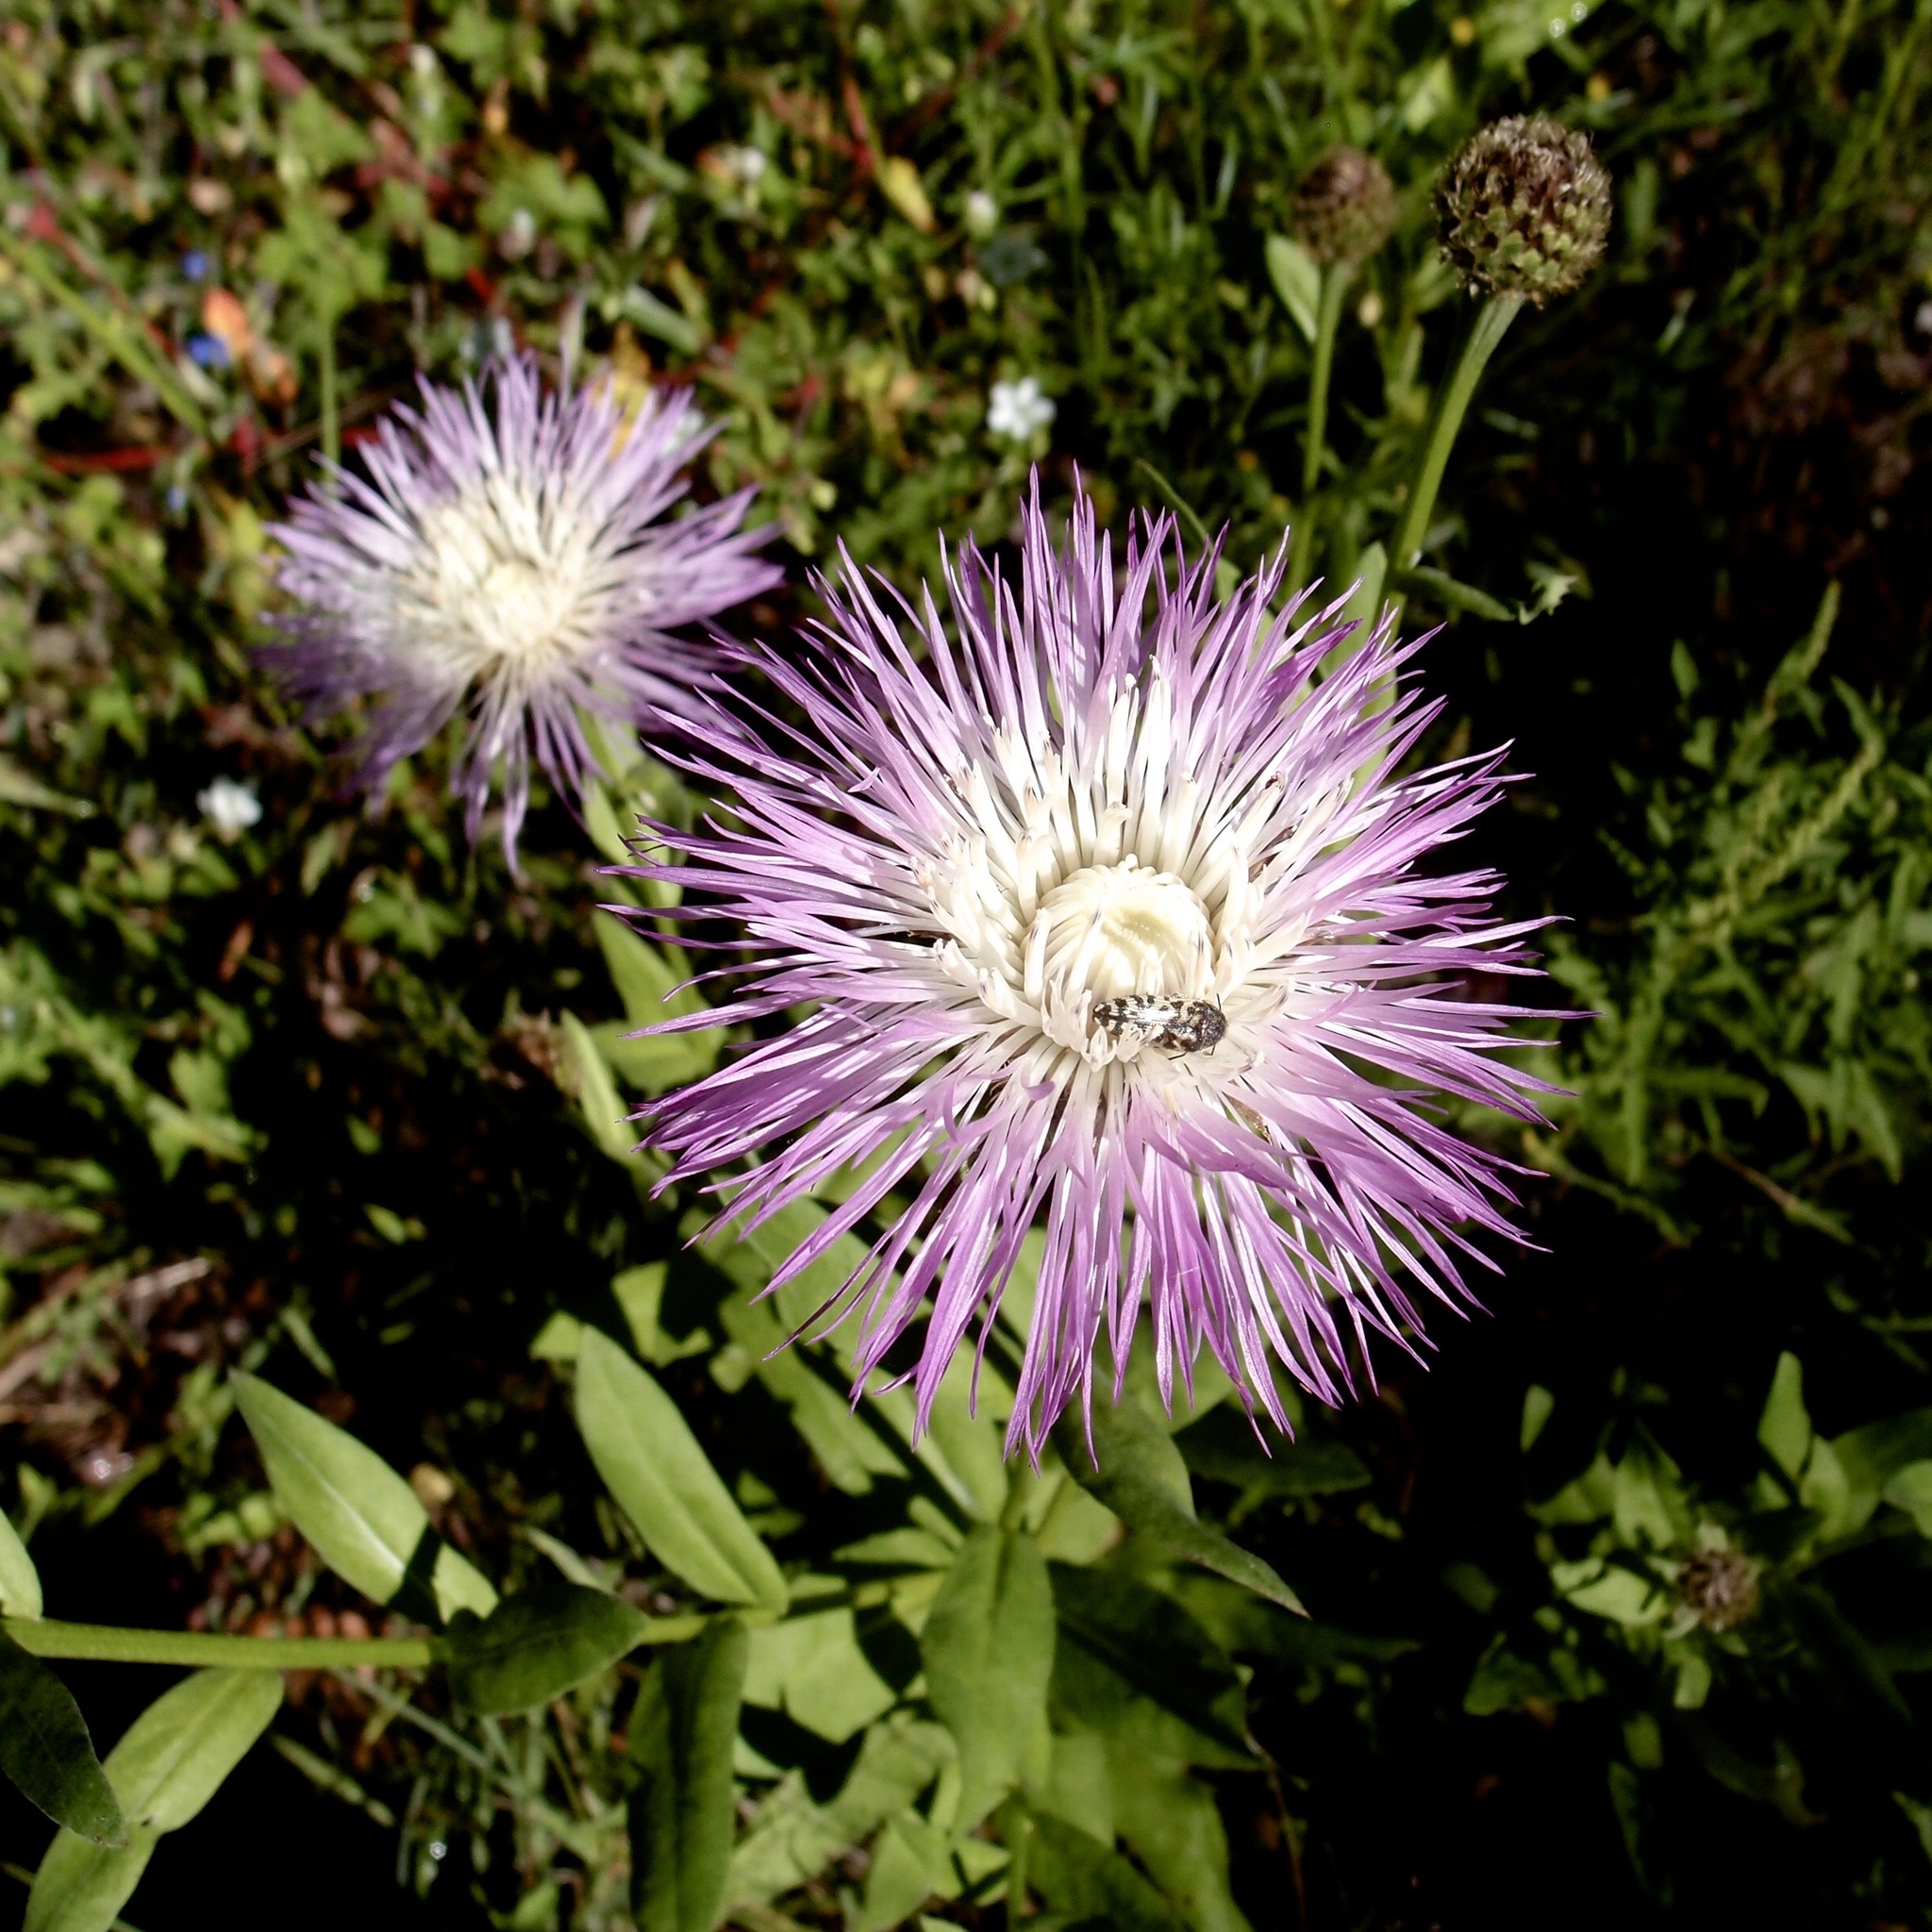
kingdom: Plantae
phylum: Tracheophyta
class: Magnoliopsida
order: Asterales
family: Asteraceae
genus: Plectocephalus
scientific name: Plectocephalus rothrockii
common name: Mexican basketflower
